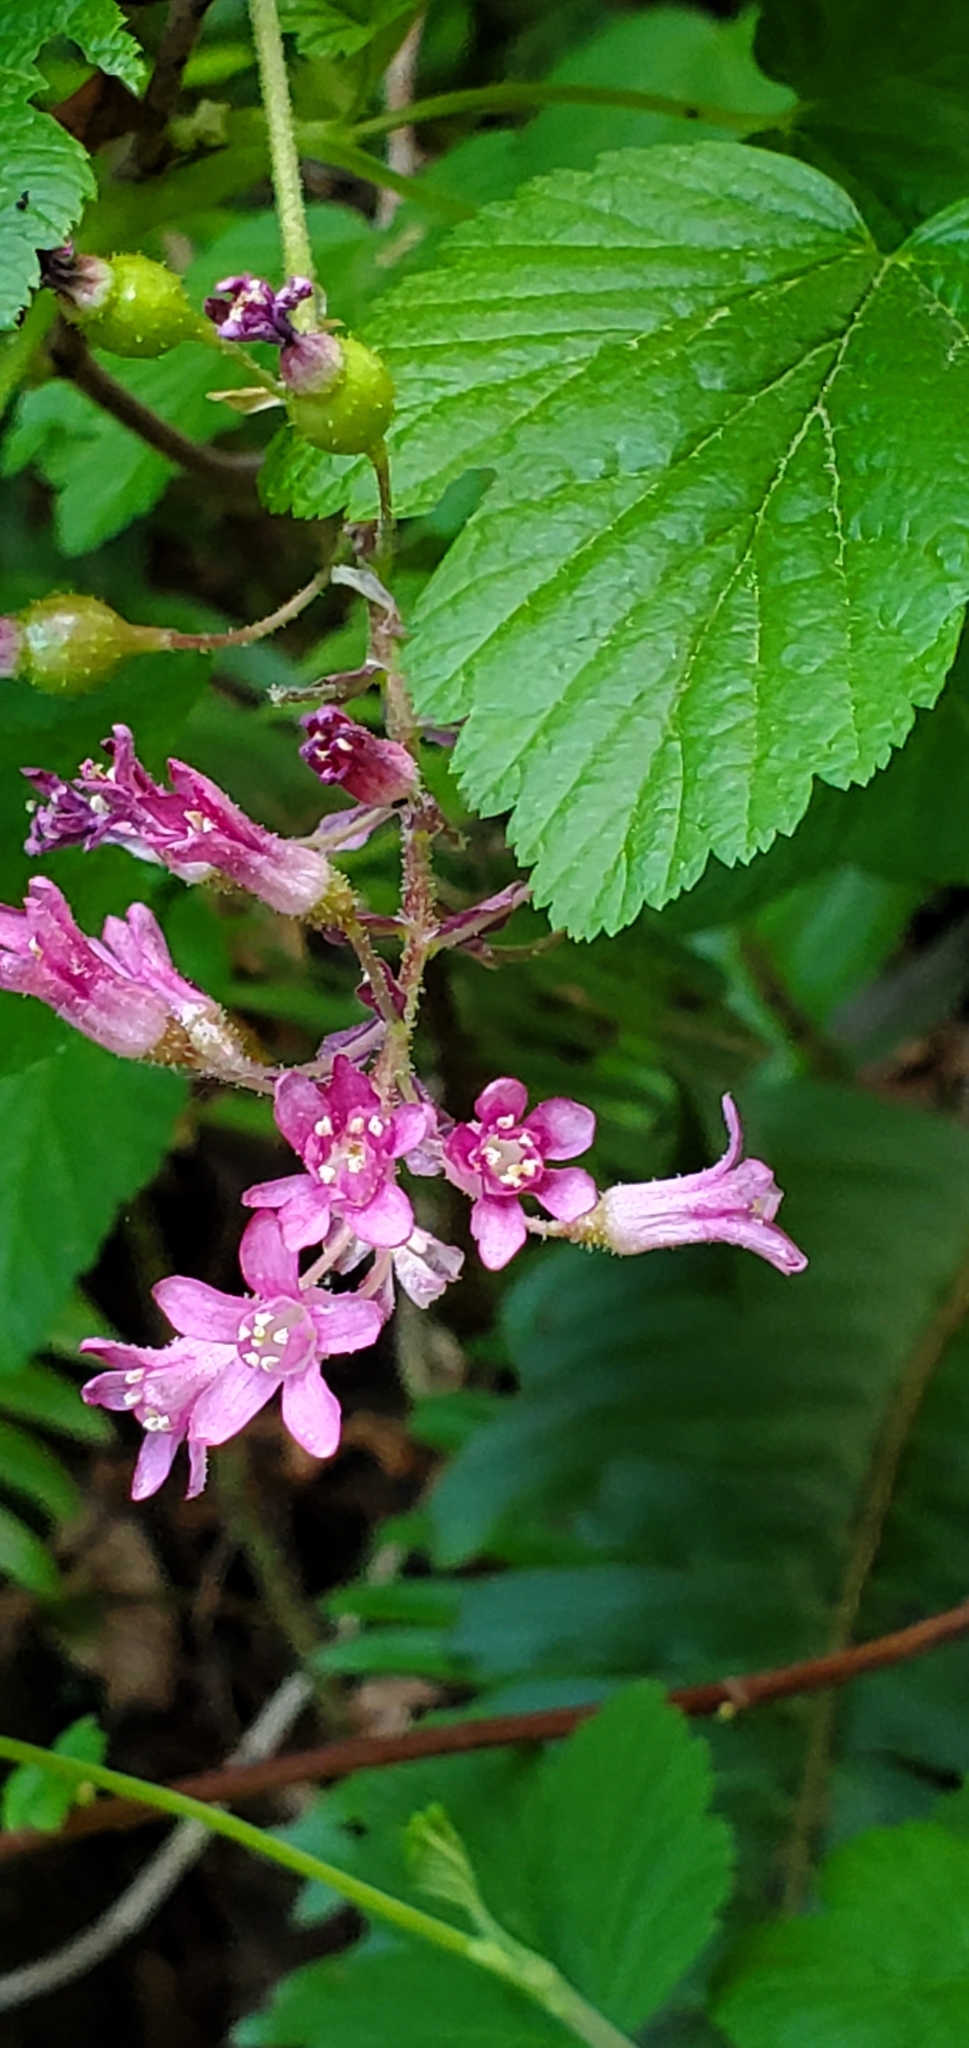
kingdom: Plantae
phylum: Tracheophyta
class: Magnoliopsida
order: Saxifragales
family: Grossulariaceae
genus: Ribes
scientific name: Ribes sanguineum
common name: Flowering currant
